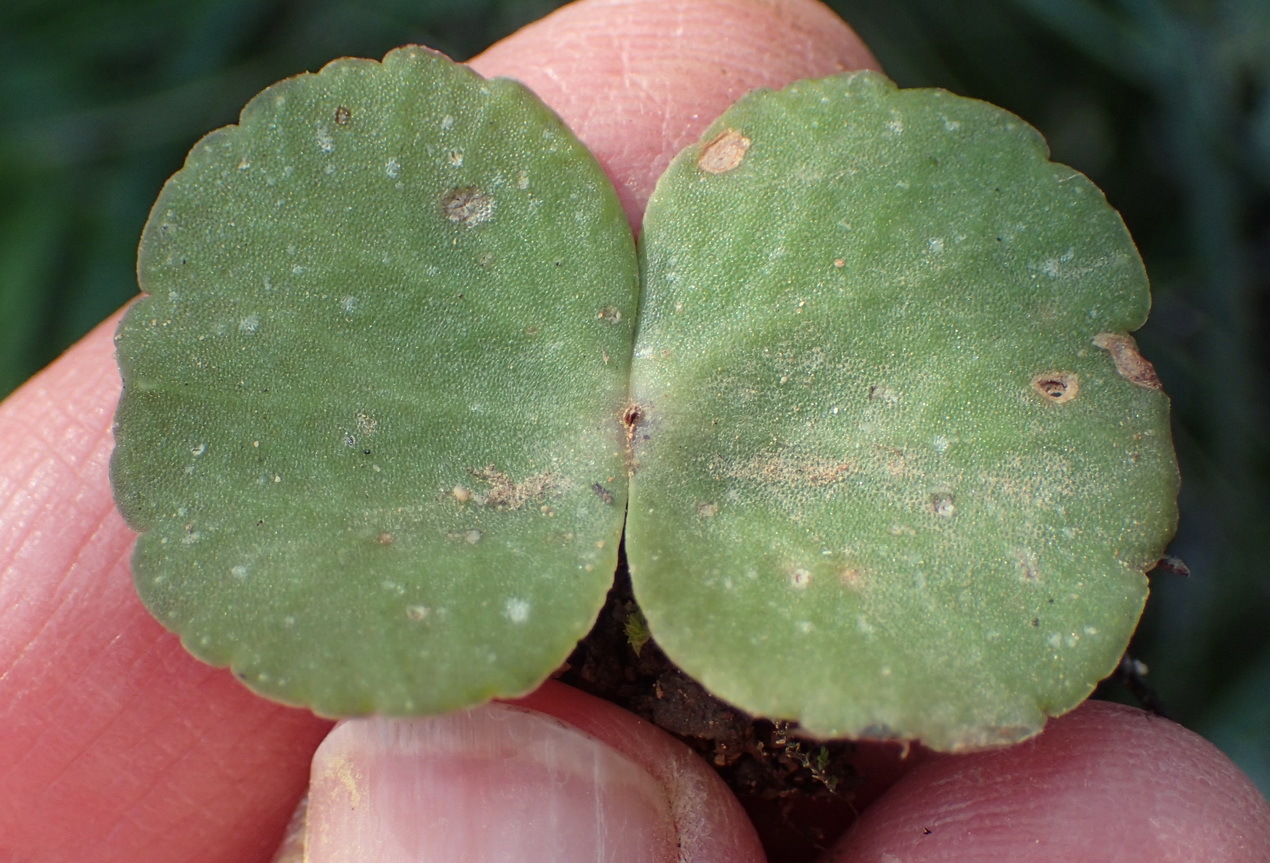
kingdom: Plantae
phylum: Tracheophyta
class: Magnoliopsida
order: Saxifragales
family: Crassulaceae
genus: Crassula
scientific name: Crassula umbella
